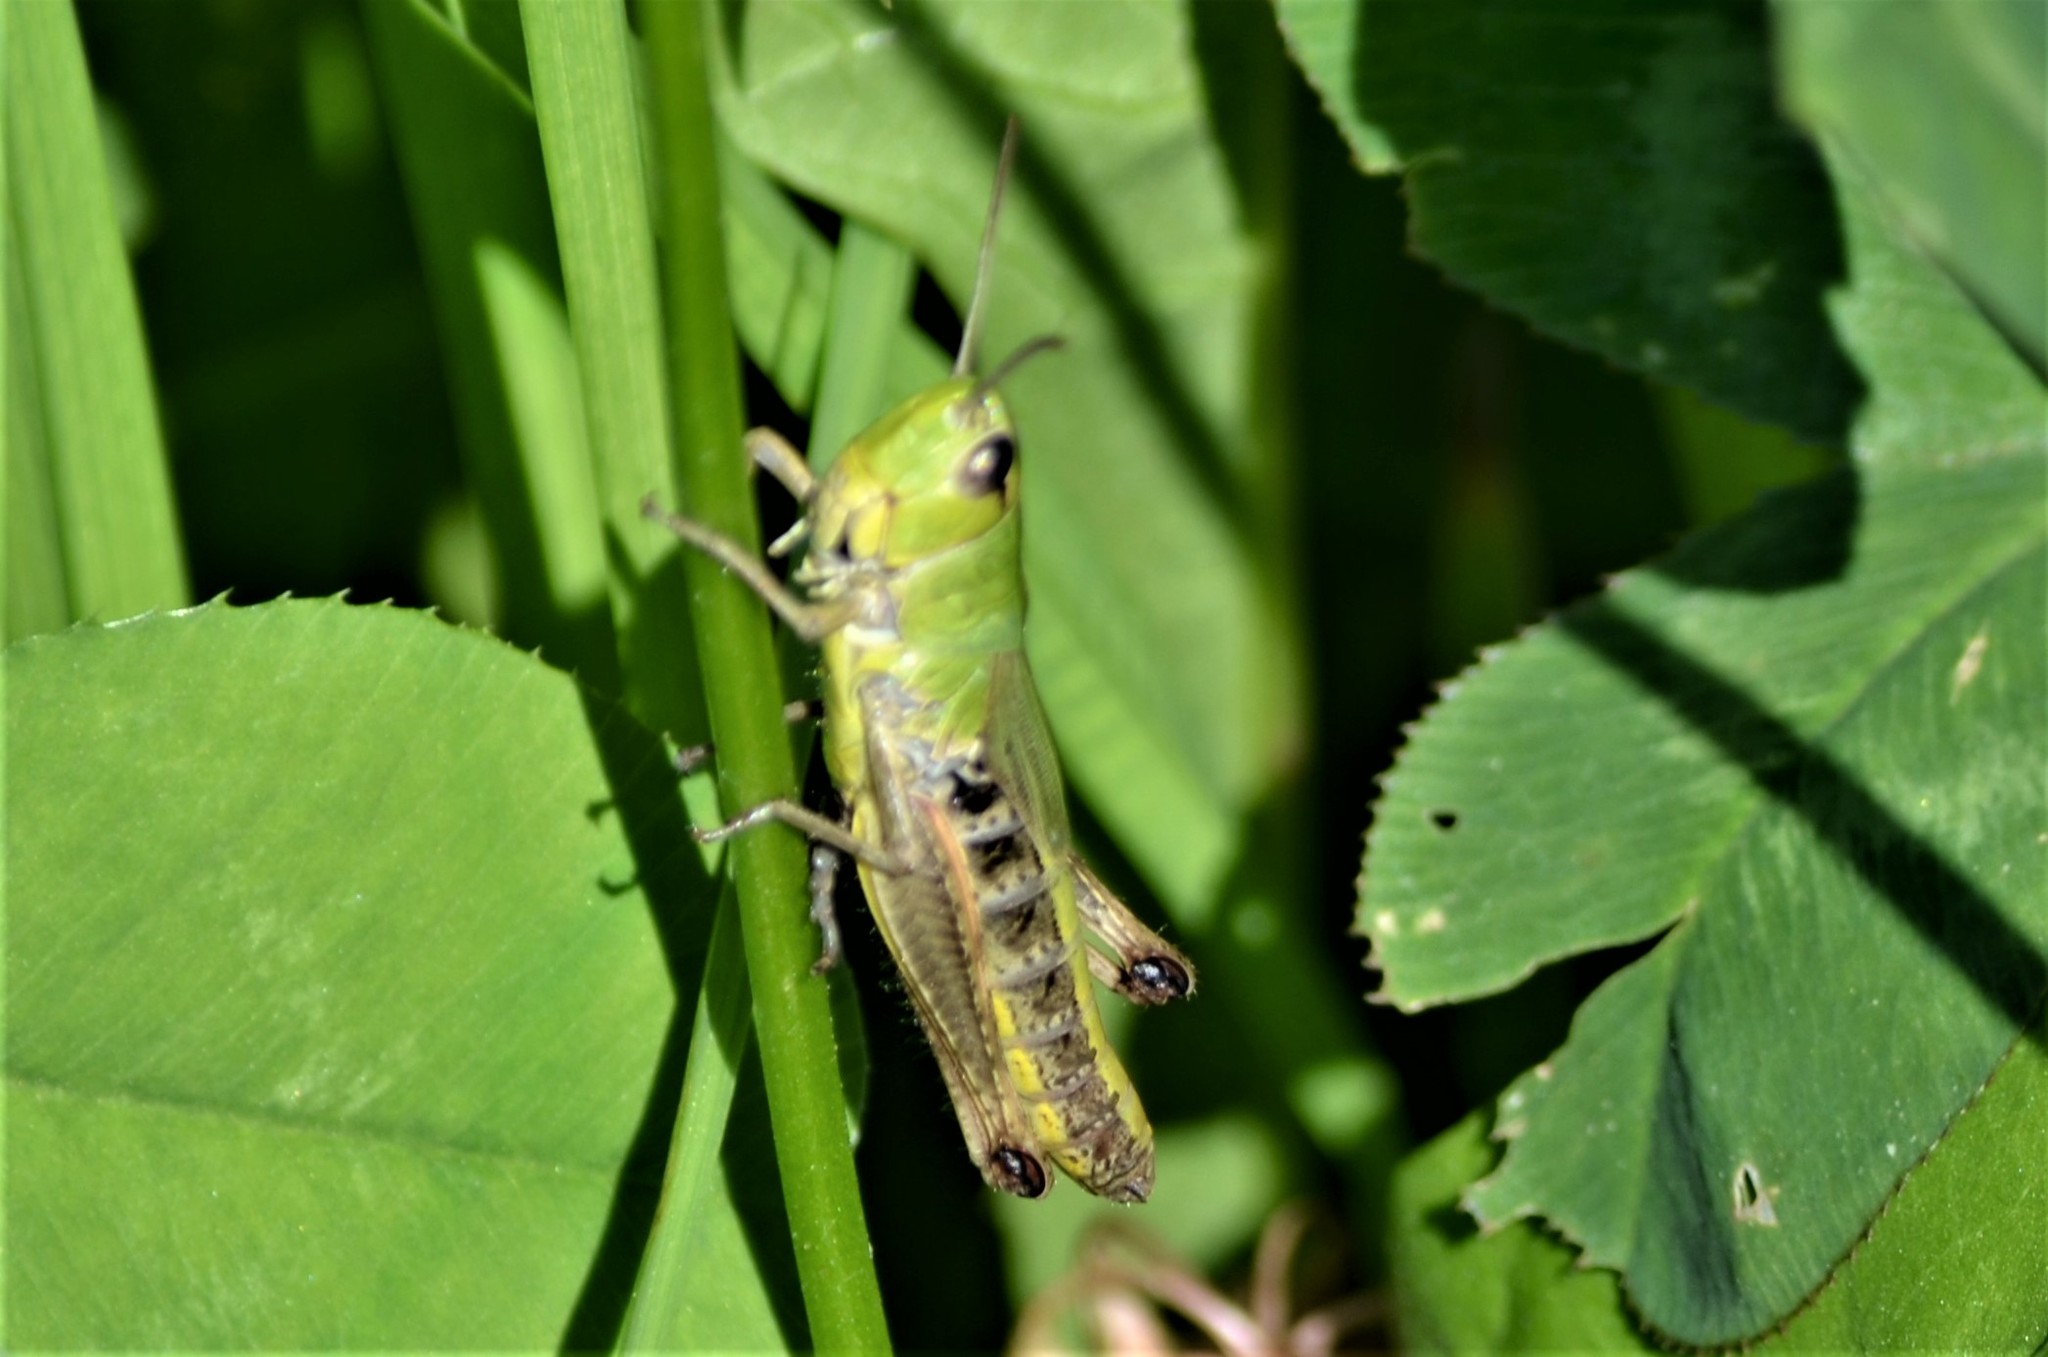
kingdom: Animalia
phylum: Arthropoda
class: Insecta
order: Orthoptera
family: Acrididae
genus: Pseudochorthippus
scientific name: Pseudochorthippus parallelus
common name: Meadow grasshopper
